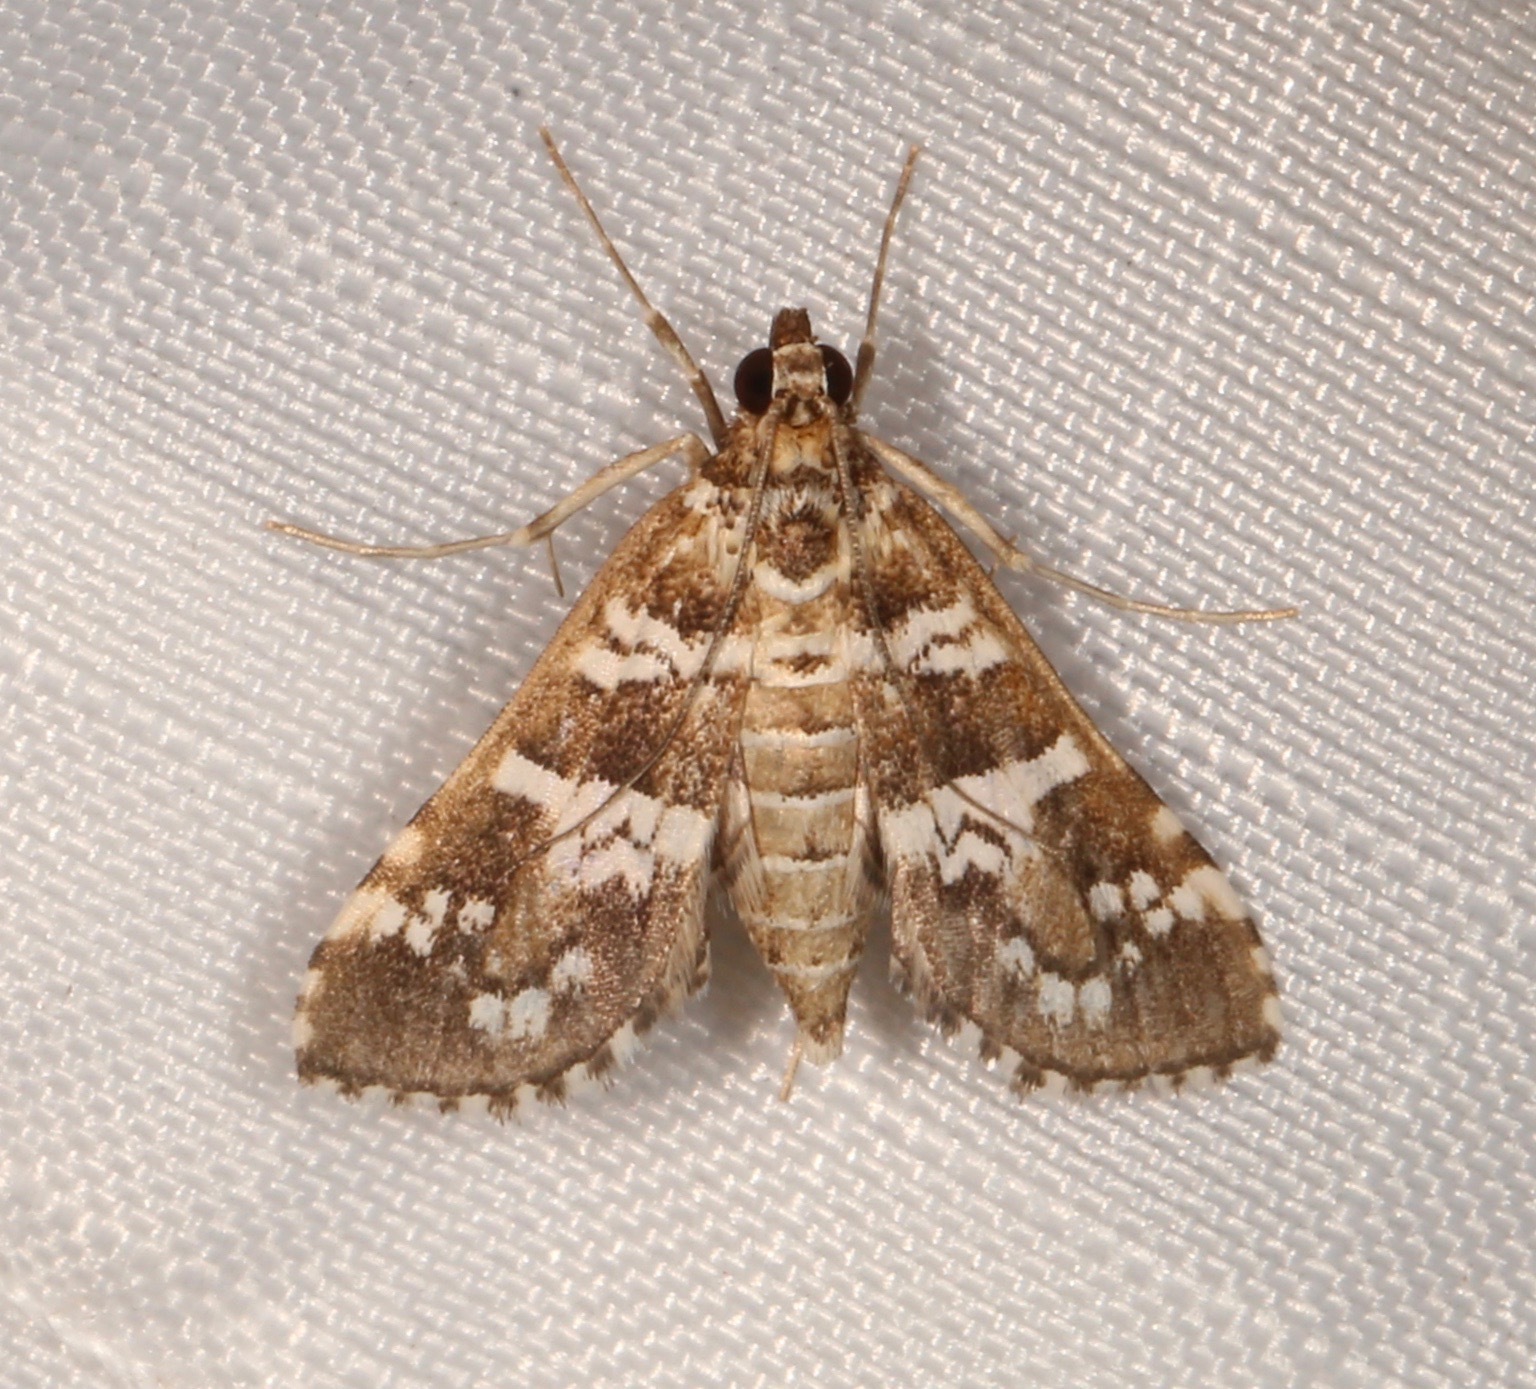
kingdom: Animalia
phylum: Arthropoda
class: Insecta
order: Lepidoptera
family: Crambidae
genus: Samea
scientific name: Samea druchachalis
